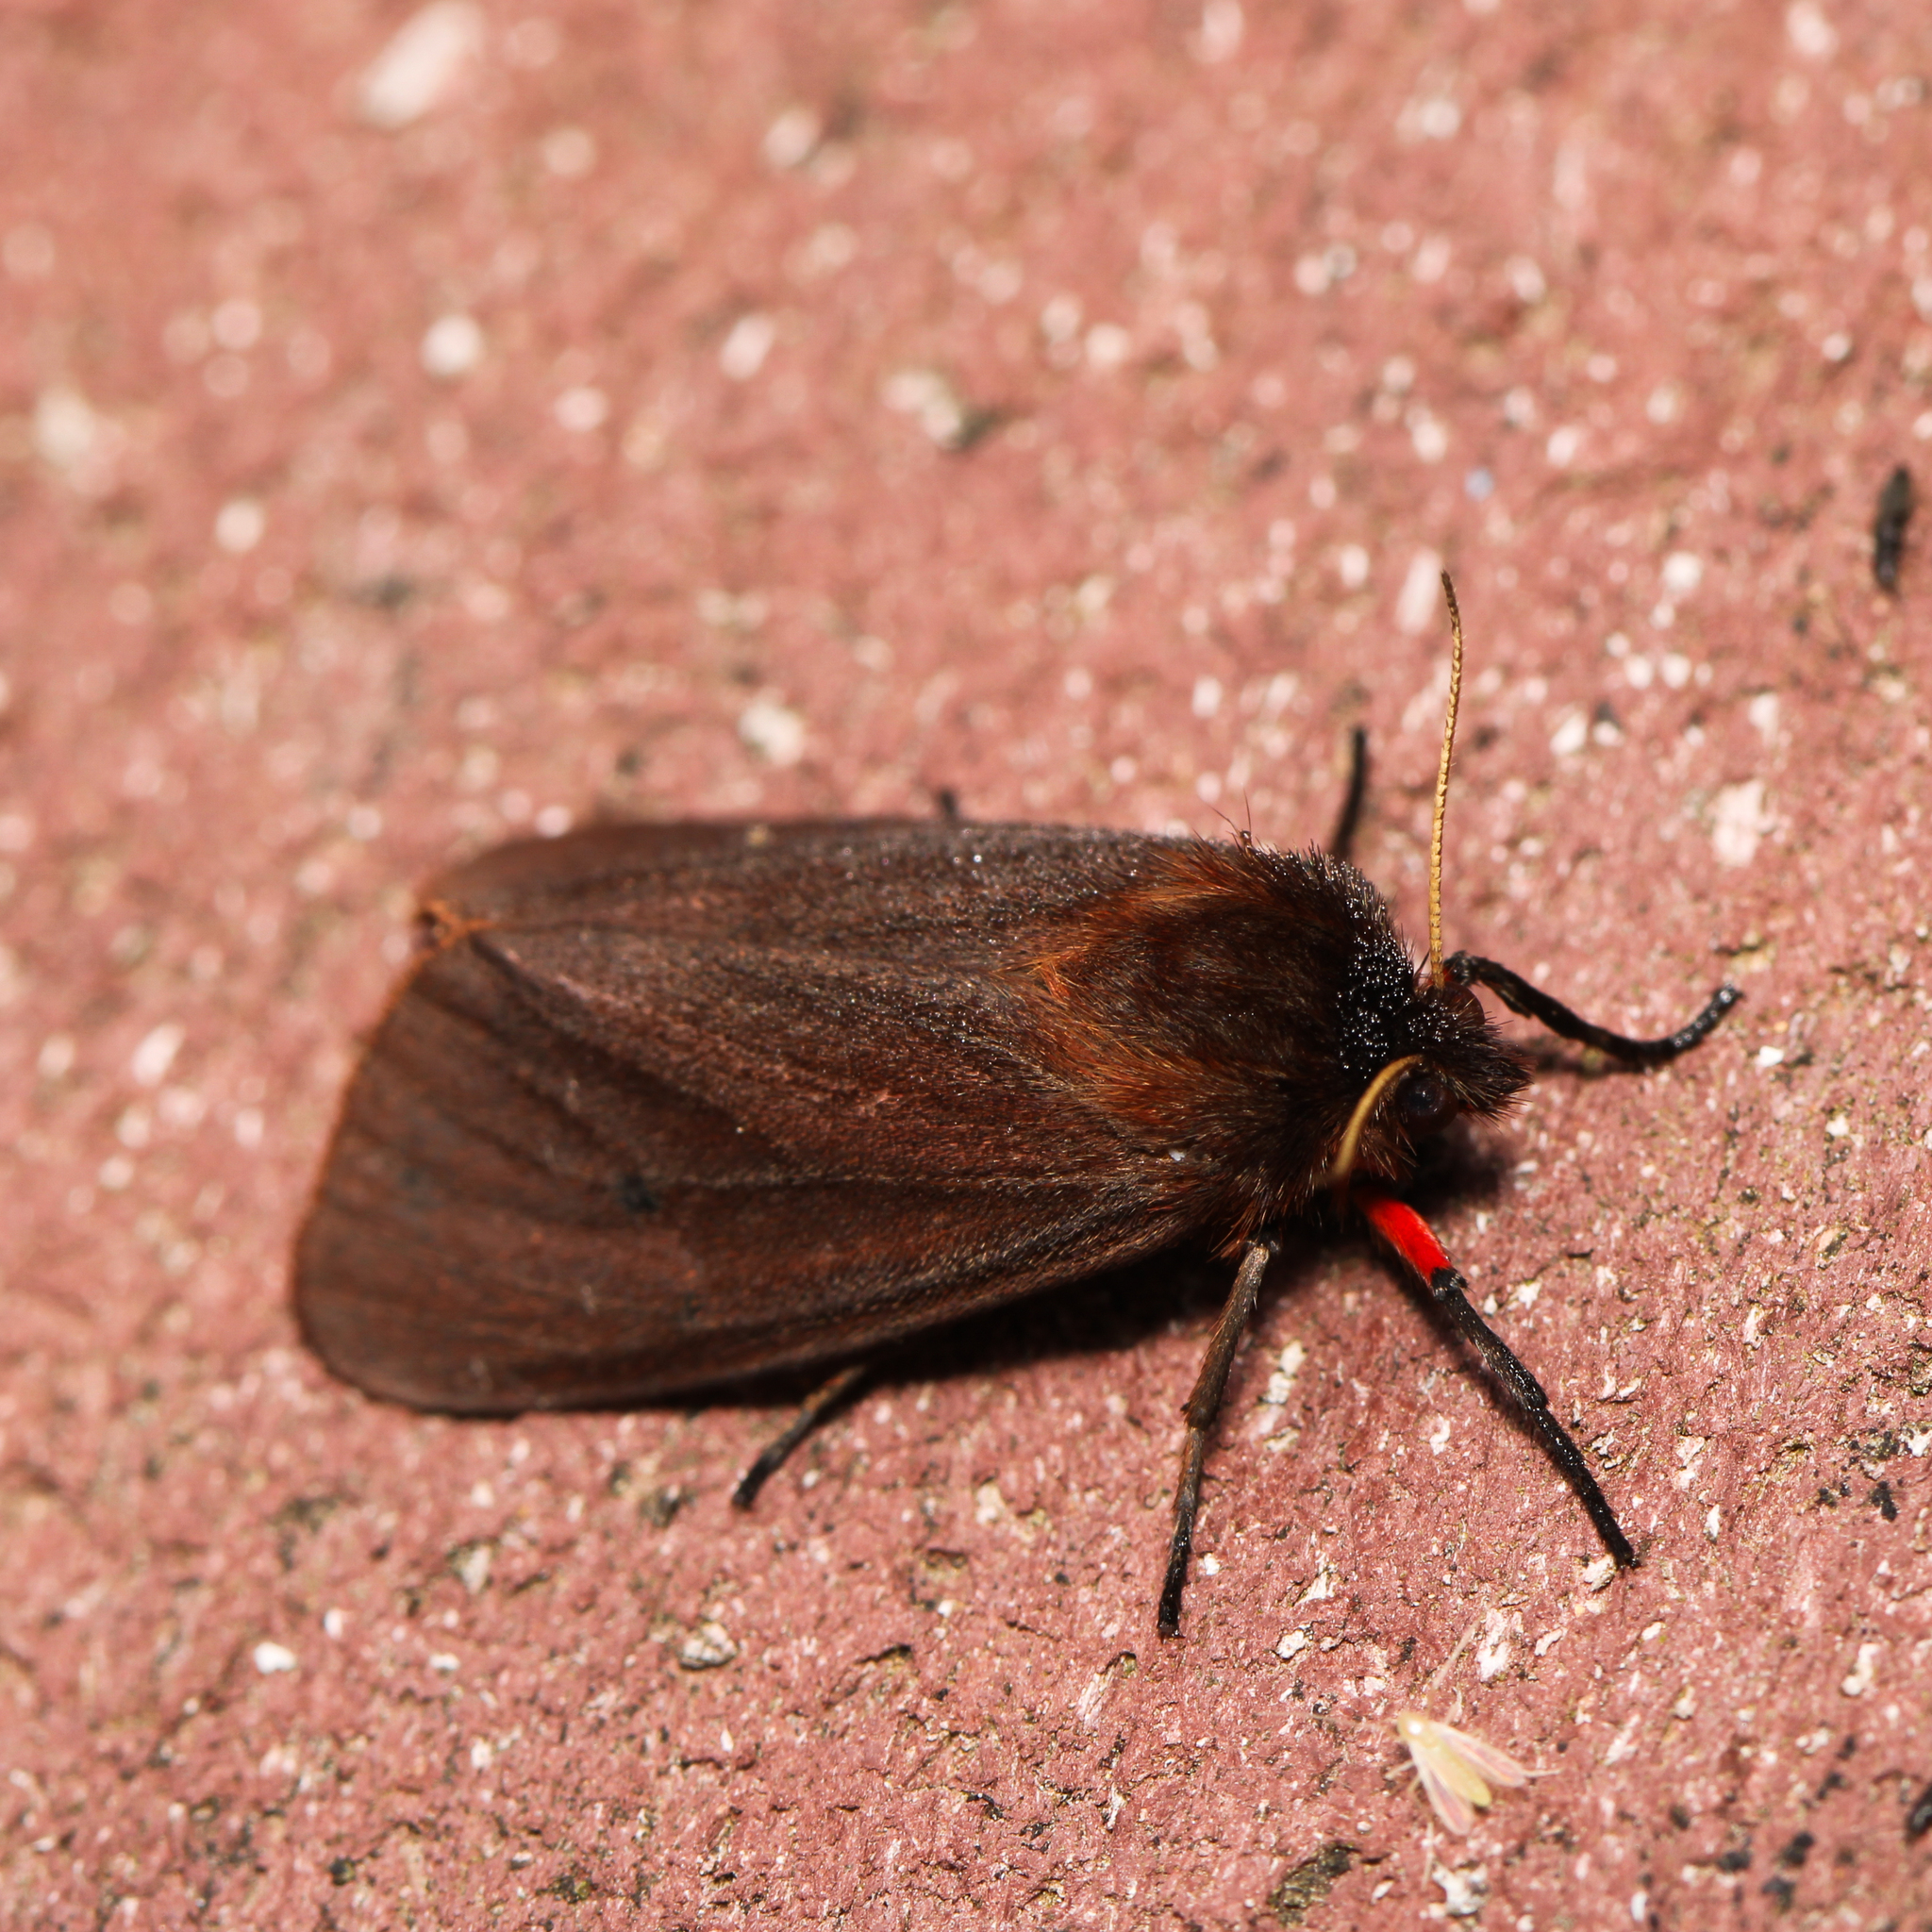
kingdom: Animalia
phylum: Arthropoda
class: Insecta
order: Lepidoptera
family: Erebidae
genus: Phragmatobia
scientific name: Phragmatobia fuliginosa
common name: Ruby tiger
